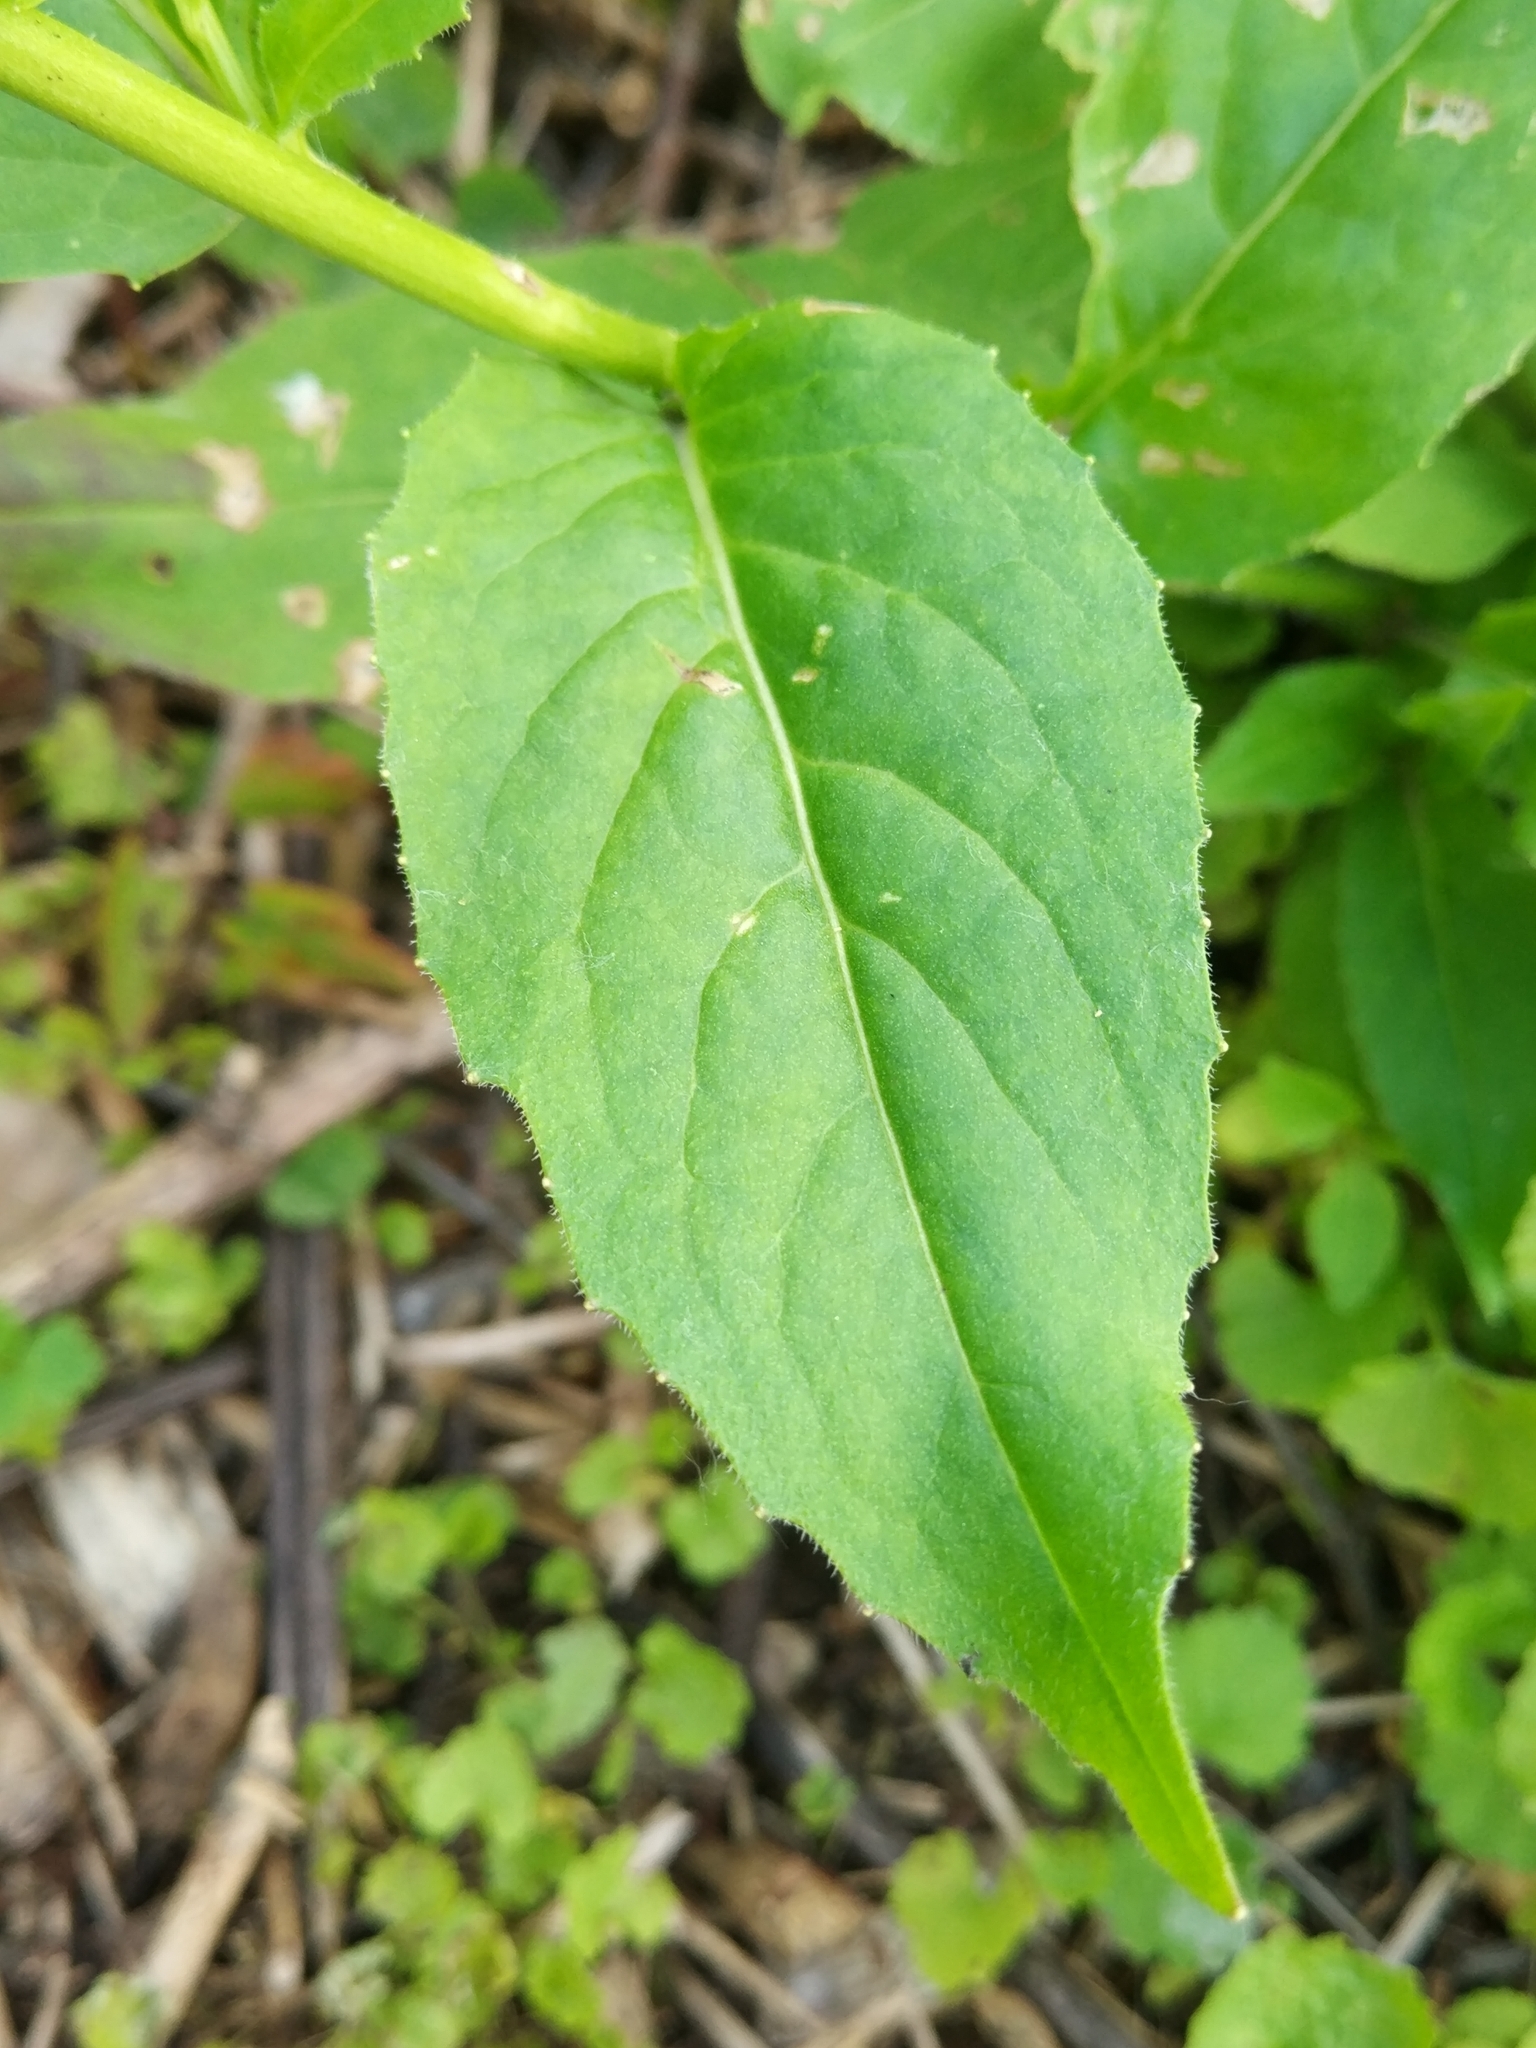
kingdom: Plantae
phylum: Tracheophyta
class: Magnoliopsida
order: Ericales
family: Polemoniaceae
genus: Phlox
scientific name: Phlox paniculata
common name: Fall phlox
